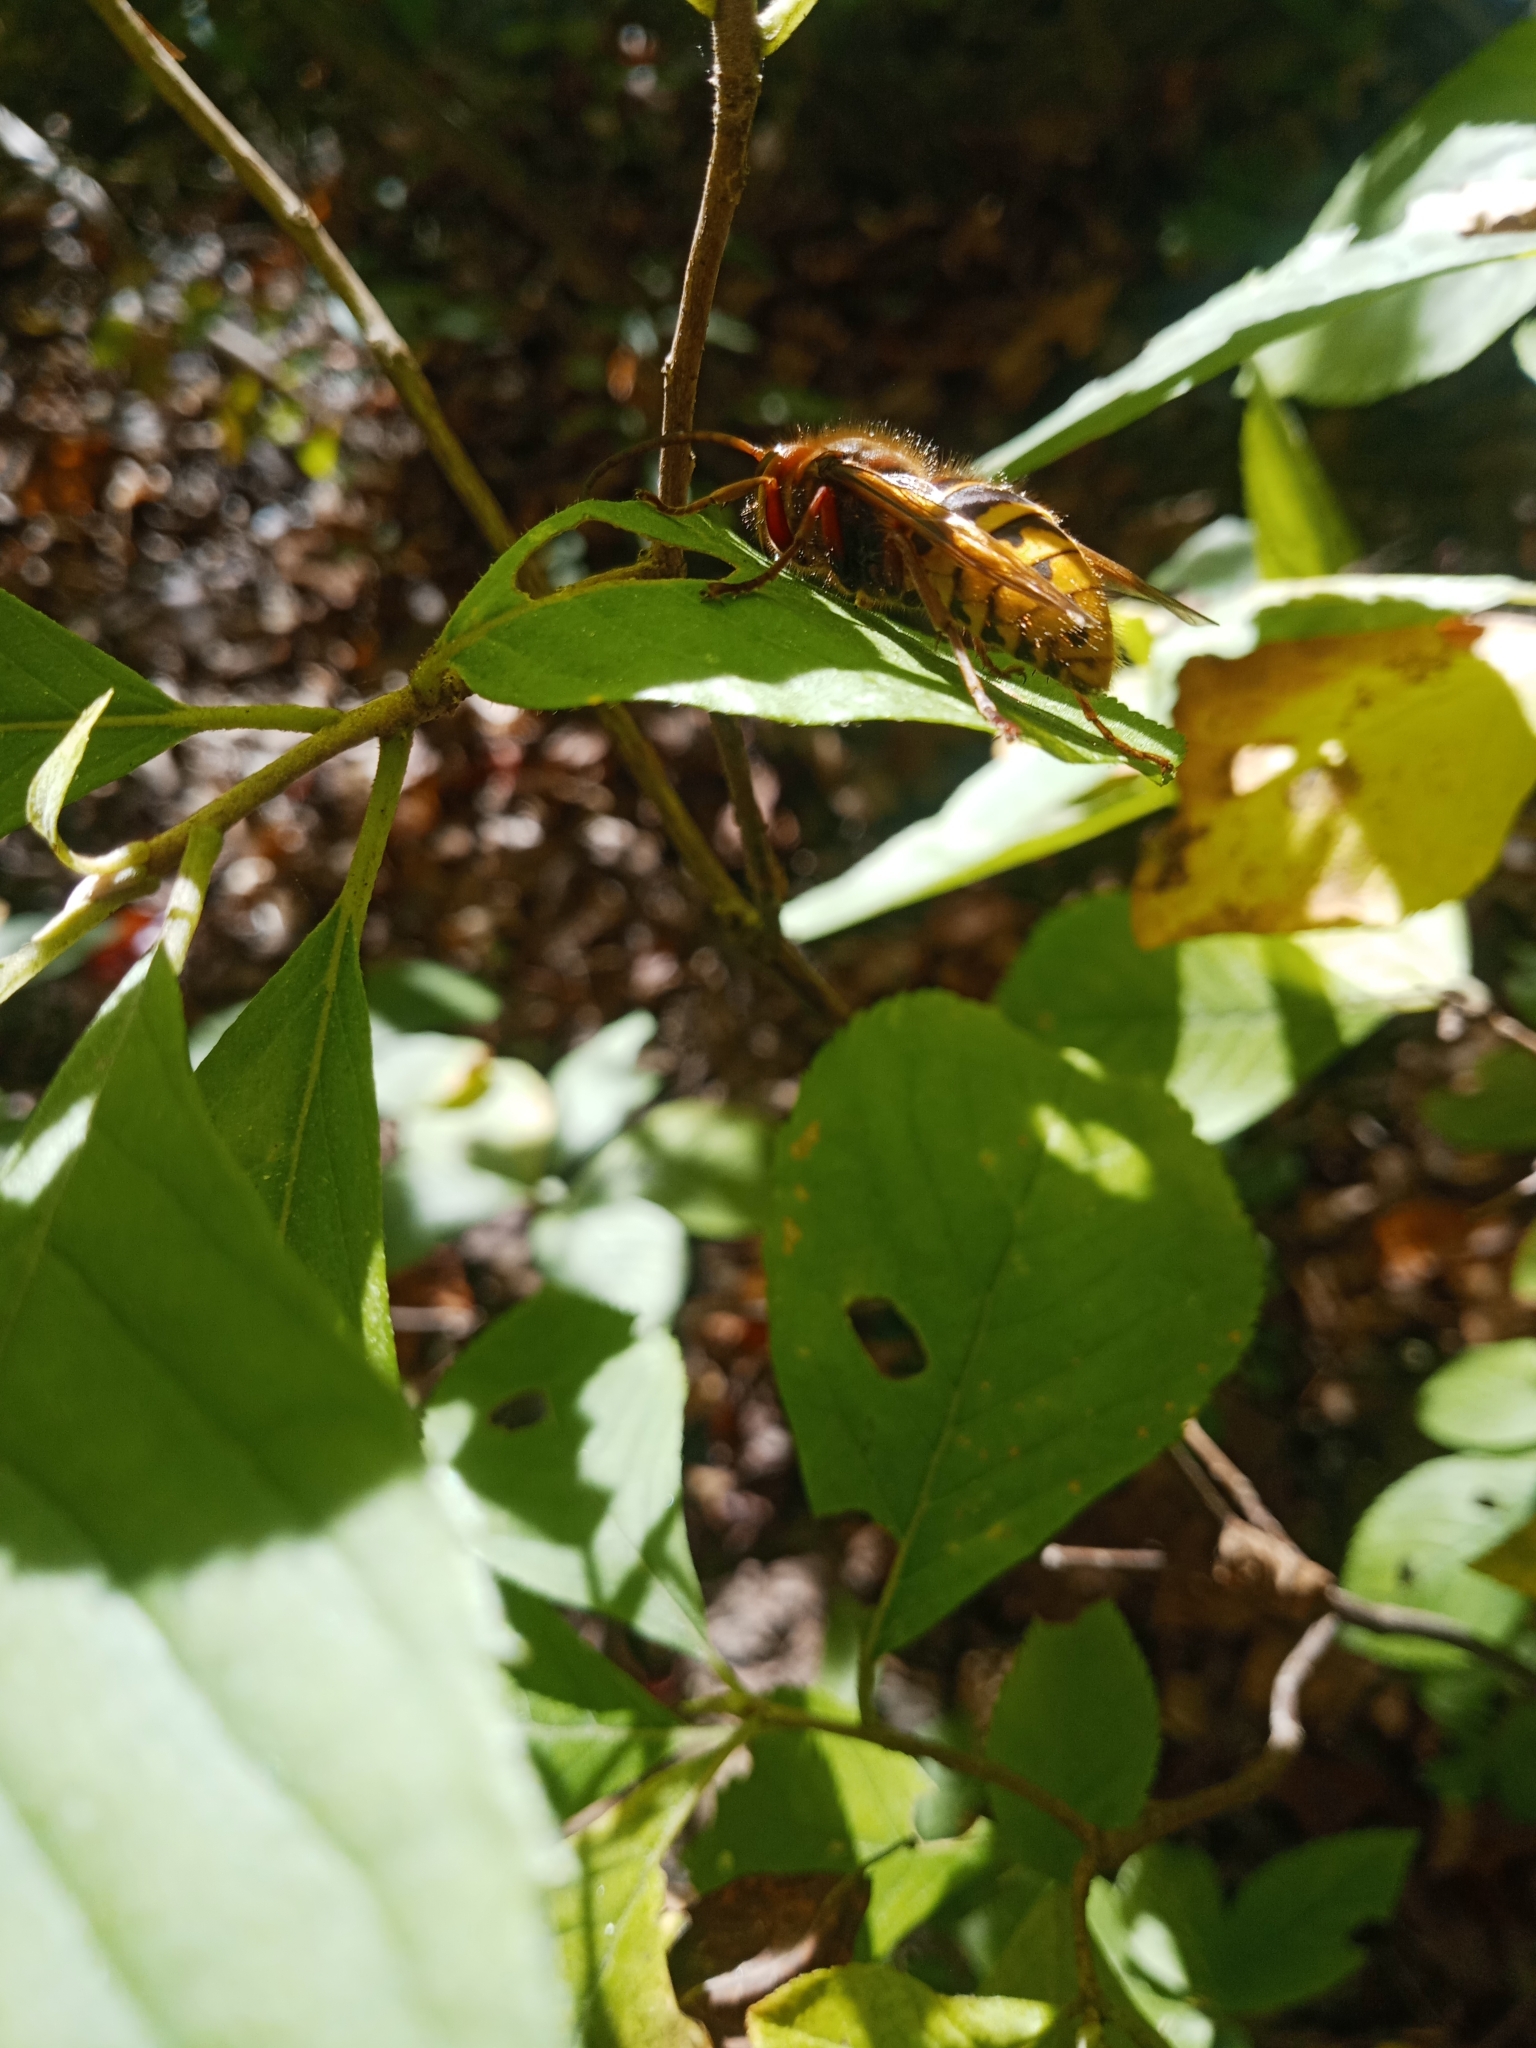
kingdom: Animalia
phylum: Arthropoda
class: Insecta
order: Hymenoptera
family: Vespidae
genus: Vespa
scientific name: Vespa crabro
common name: Hornet
